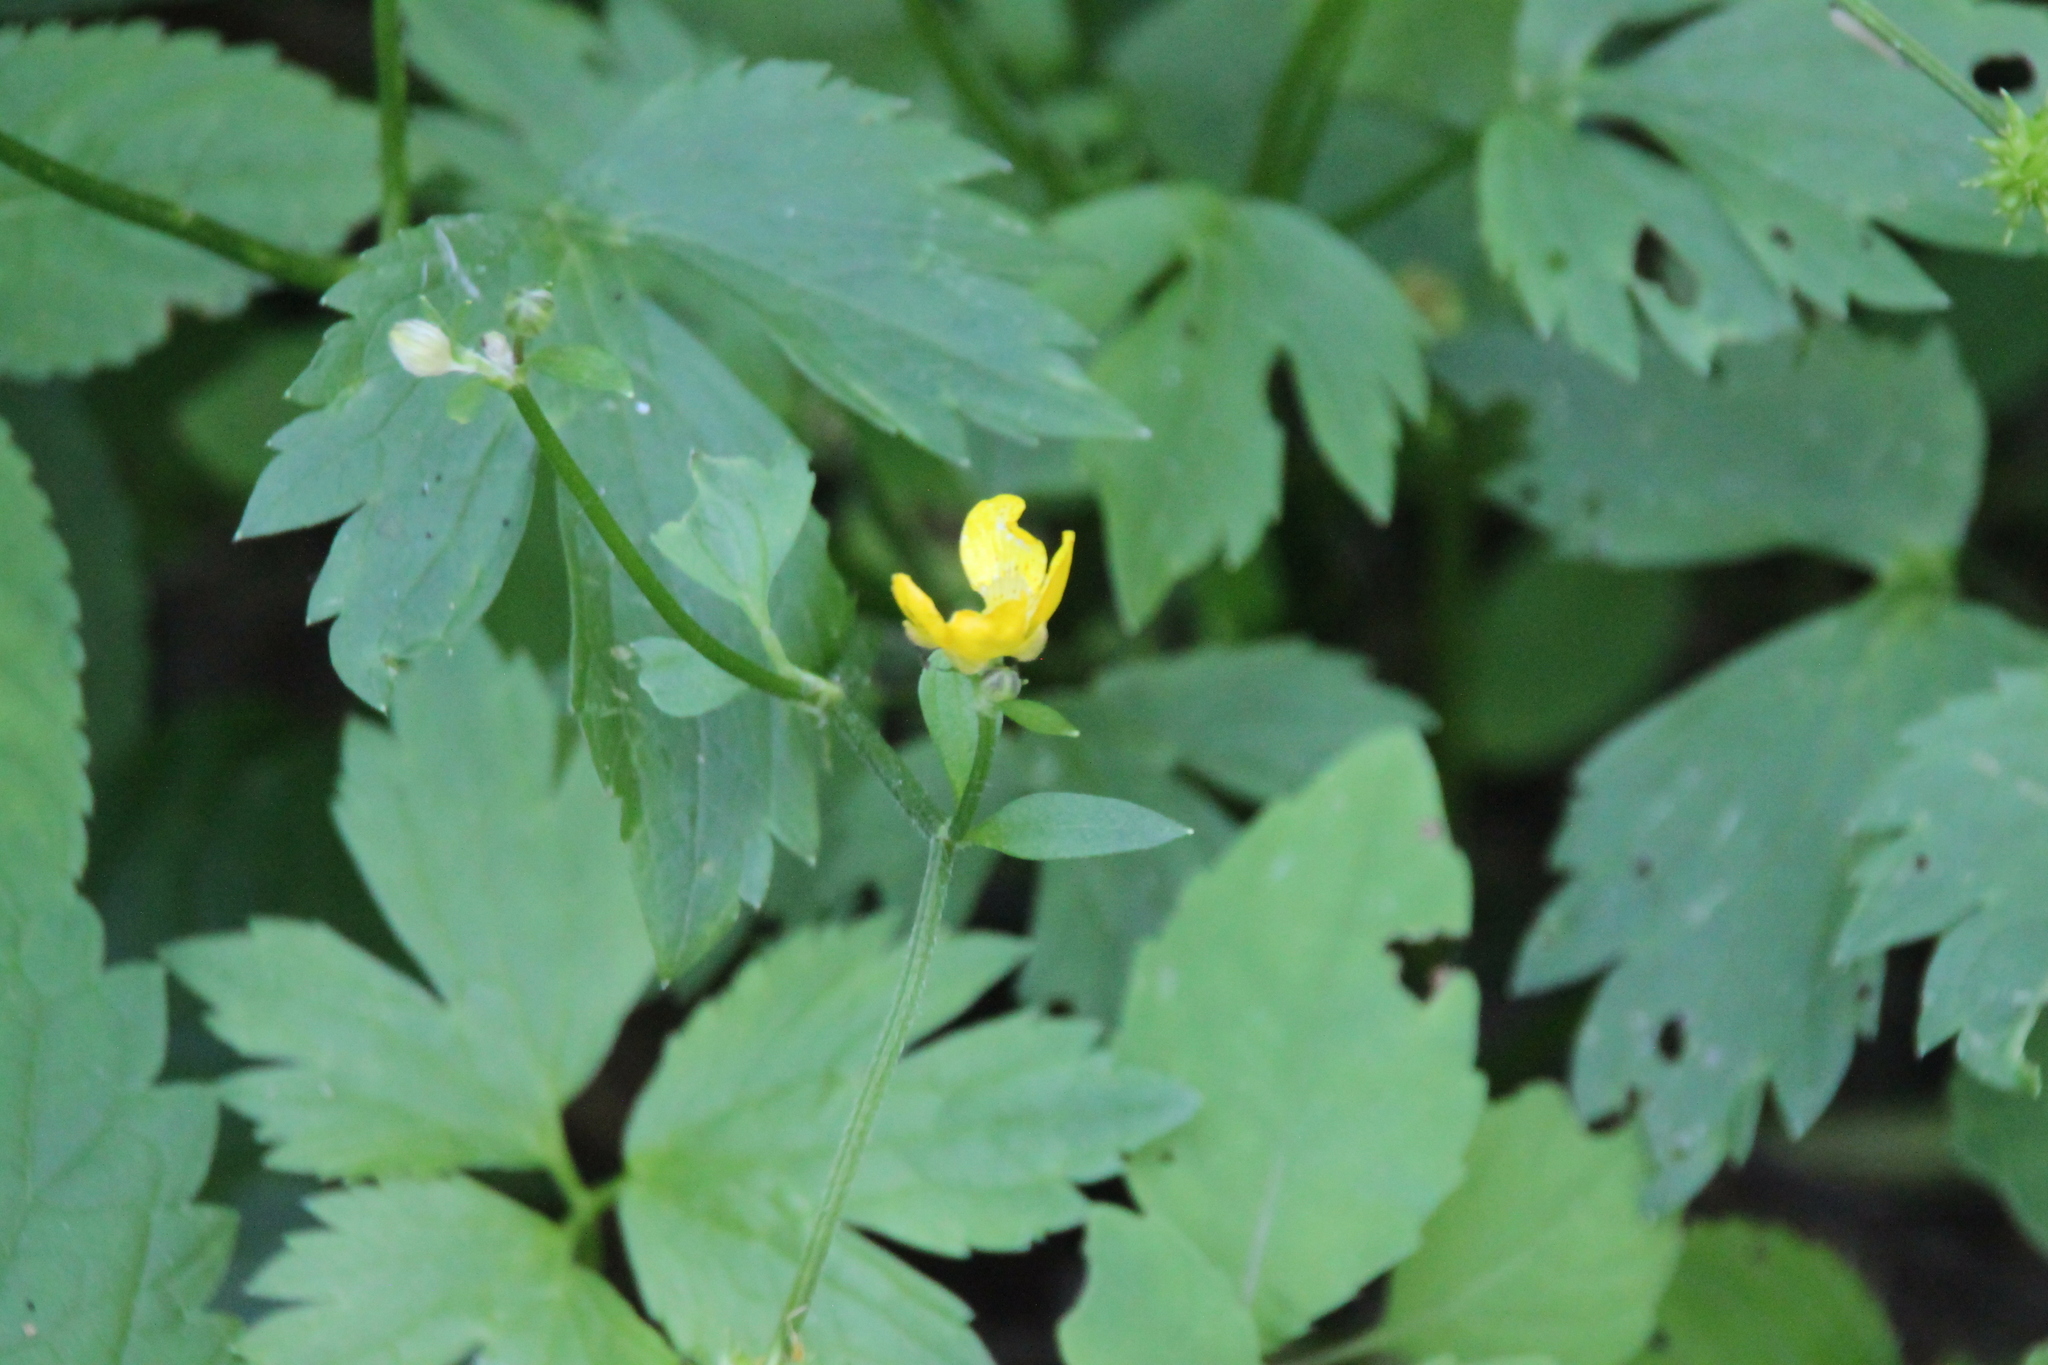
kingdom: Plantae
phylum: Tracheophyta
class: Magnoliopsida
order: Ranunculales
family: Ranunculaceae
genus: Ranunculus
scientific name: Ranunculus repens
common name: Creeping buttercup
